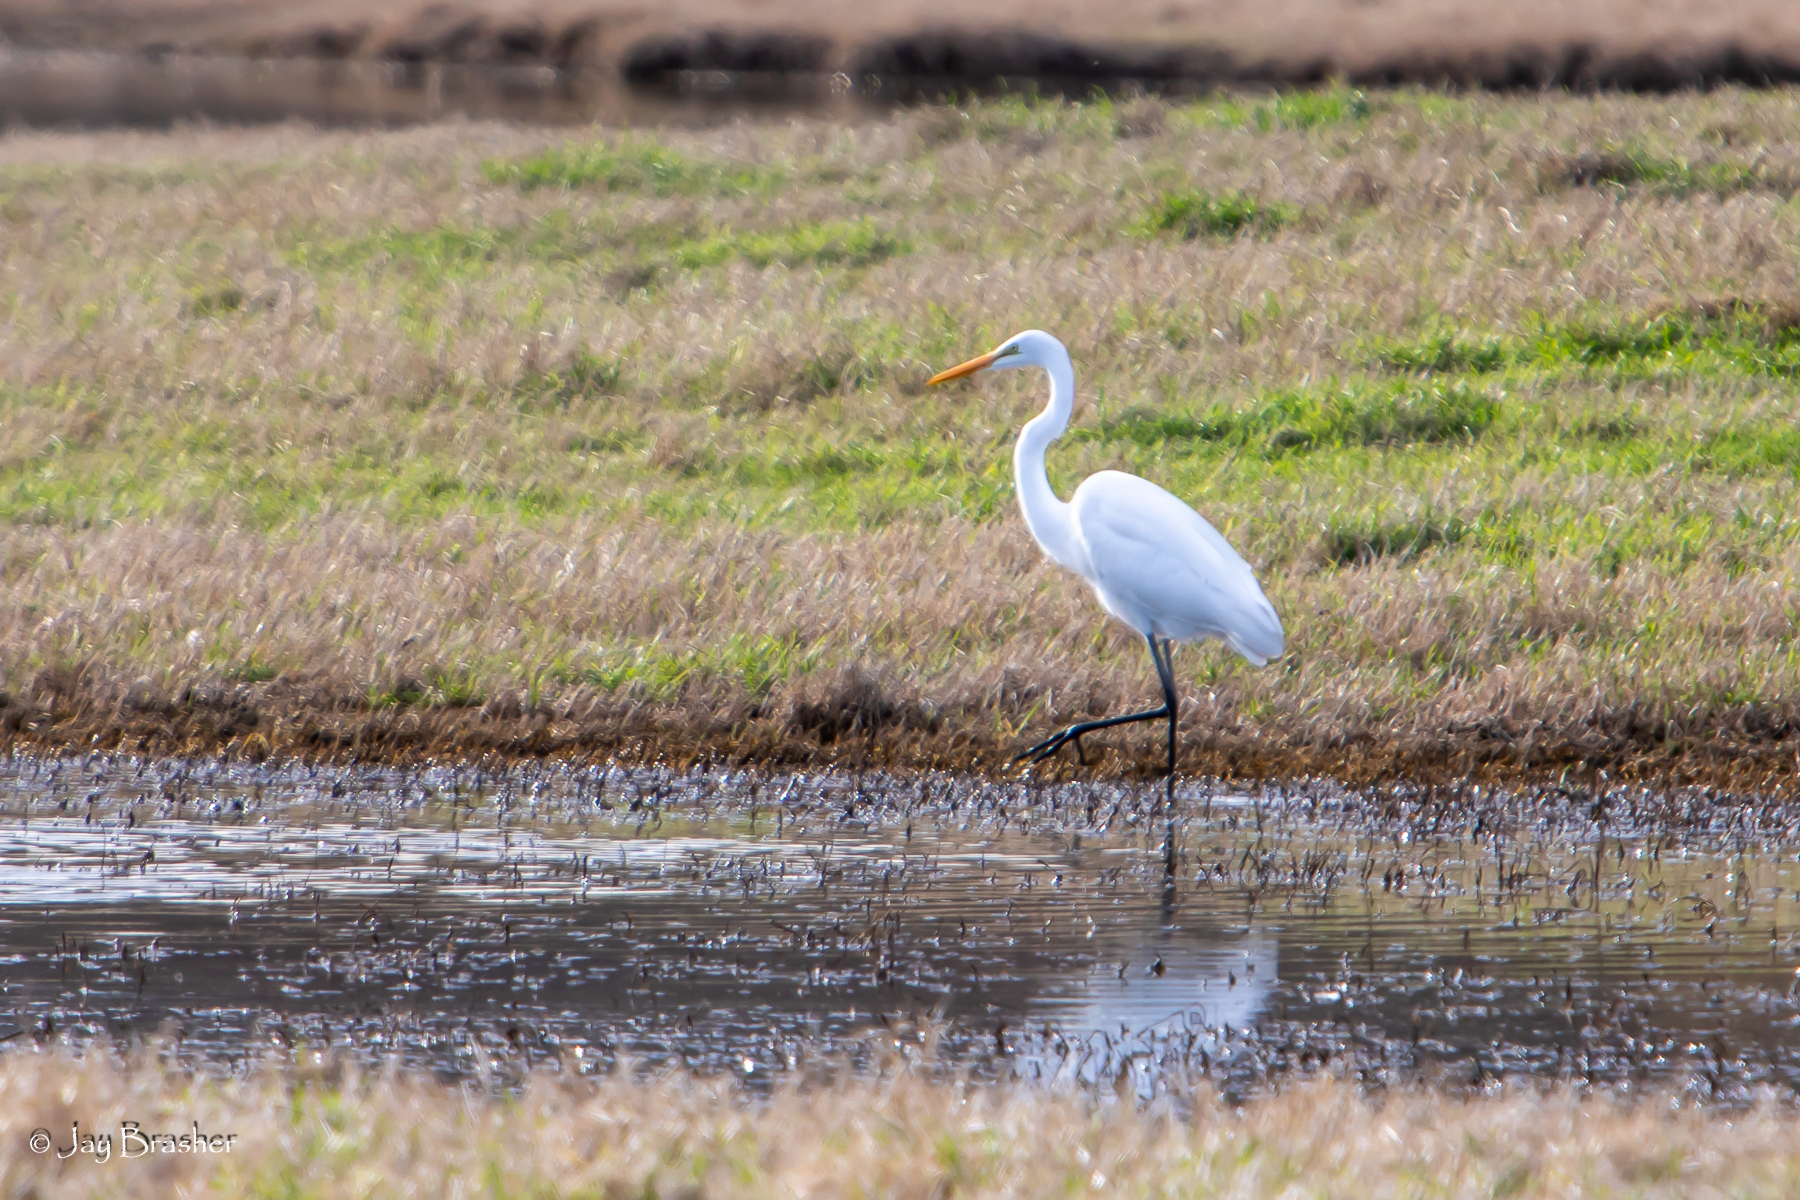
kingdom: Animalia
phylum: Chordata
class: Aves
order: Pelecaniformes
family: Ardeidae
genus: Ardea
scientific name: Ardea alba
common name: Great egret
